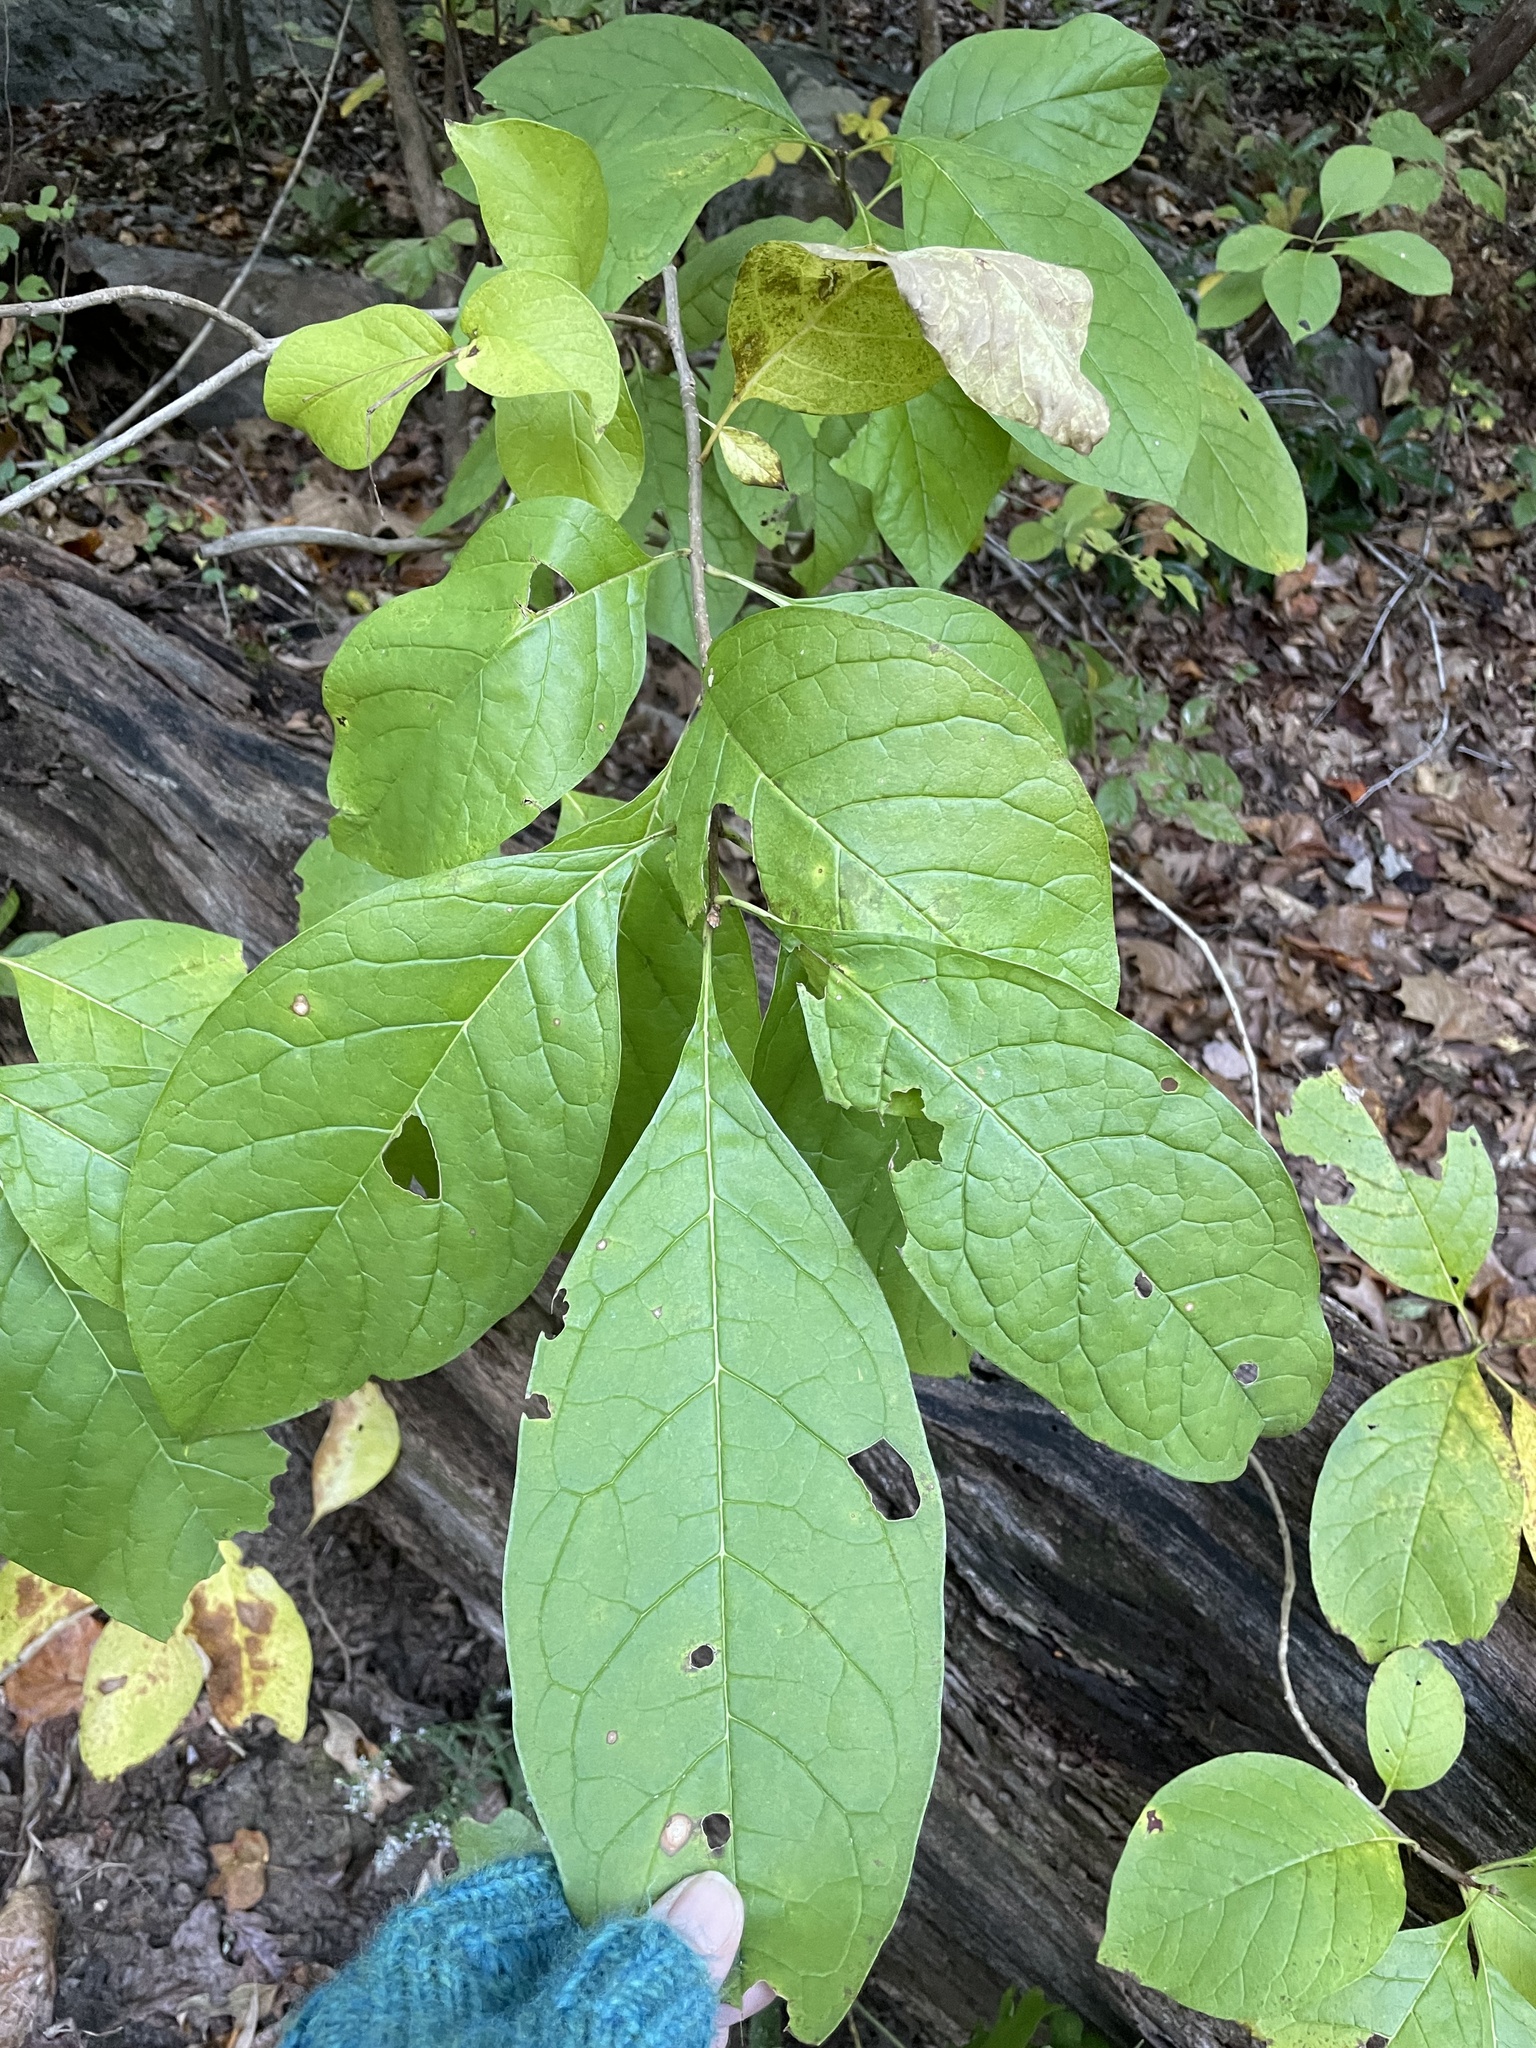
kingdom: Plantae
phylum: Tracheophyta
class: Magnoliopsida
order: Laurales
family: Lauraceae
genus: Lindera
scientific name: Lindera benzoin
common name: Spicebush
